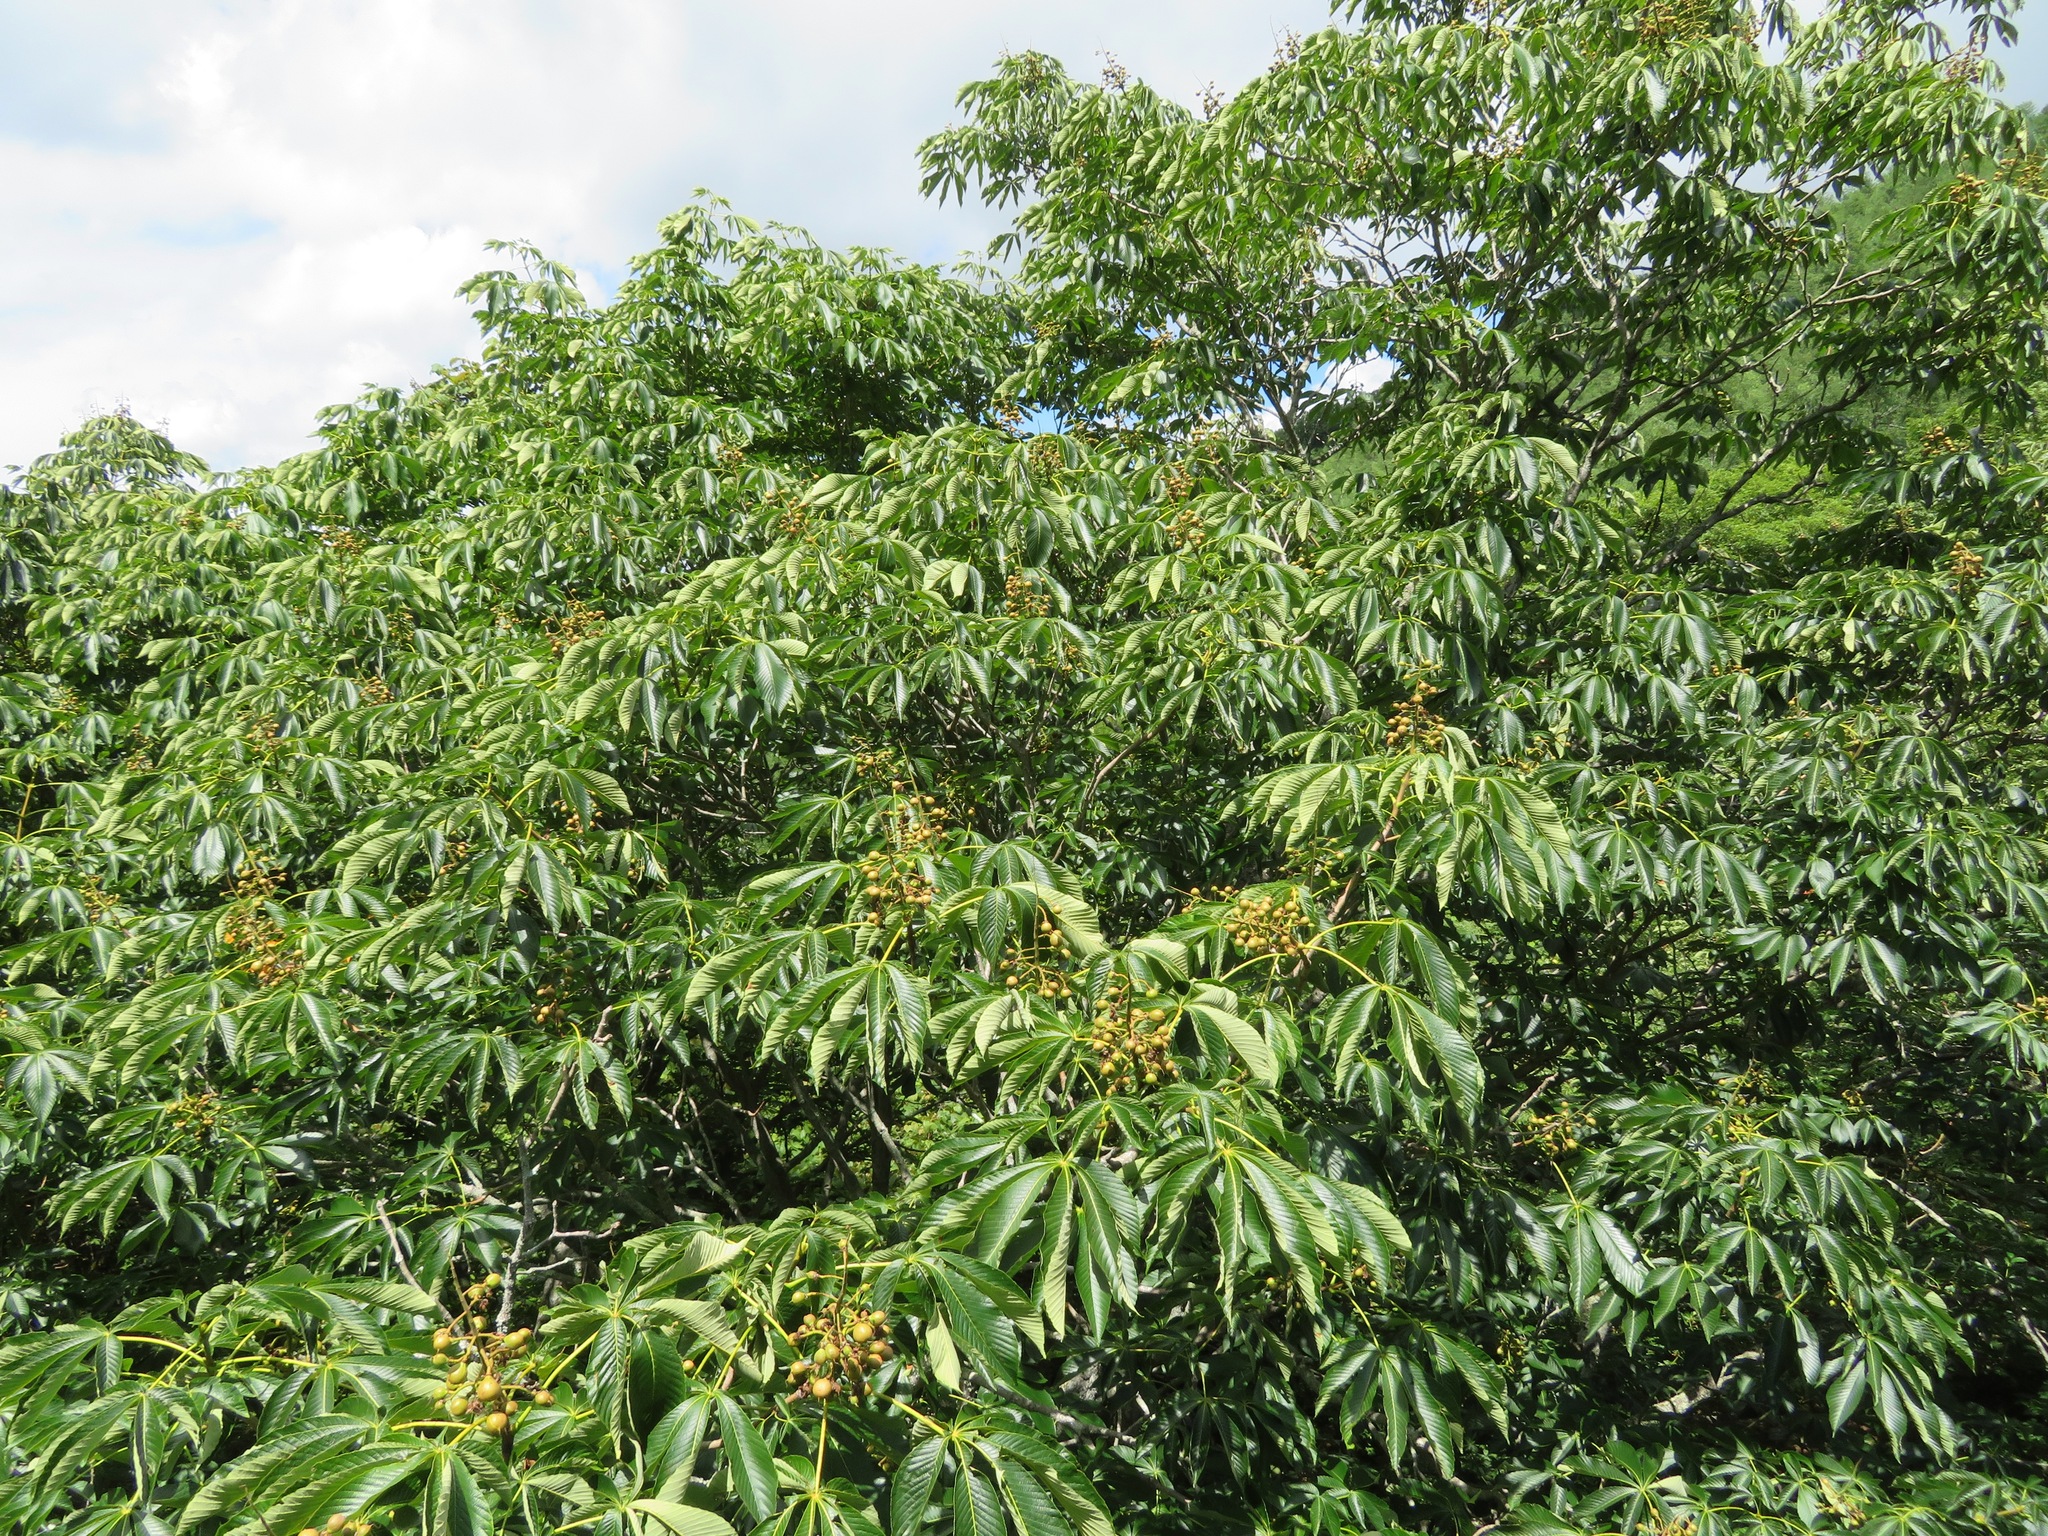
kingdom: Plantae
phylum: Tracheophyta
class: Magnoliopsida
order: Sapindales
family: Sapindaceae
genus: Aesculus
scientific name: Aesculus turbinata
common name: Japanese horse-chestnut
